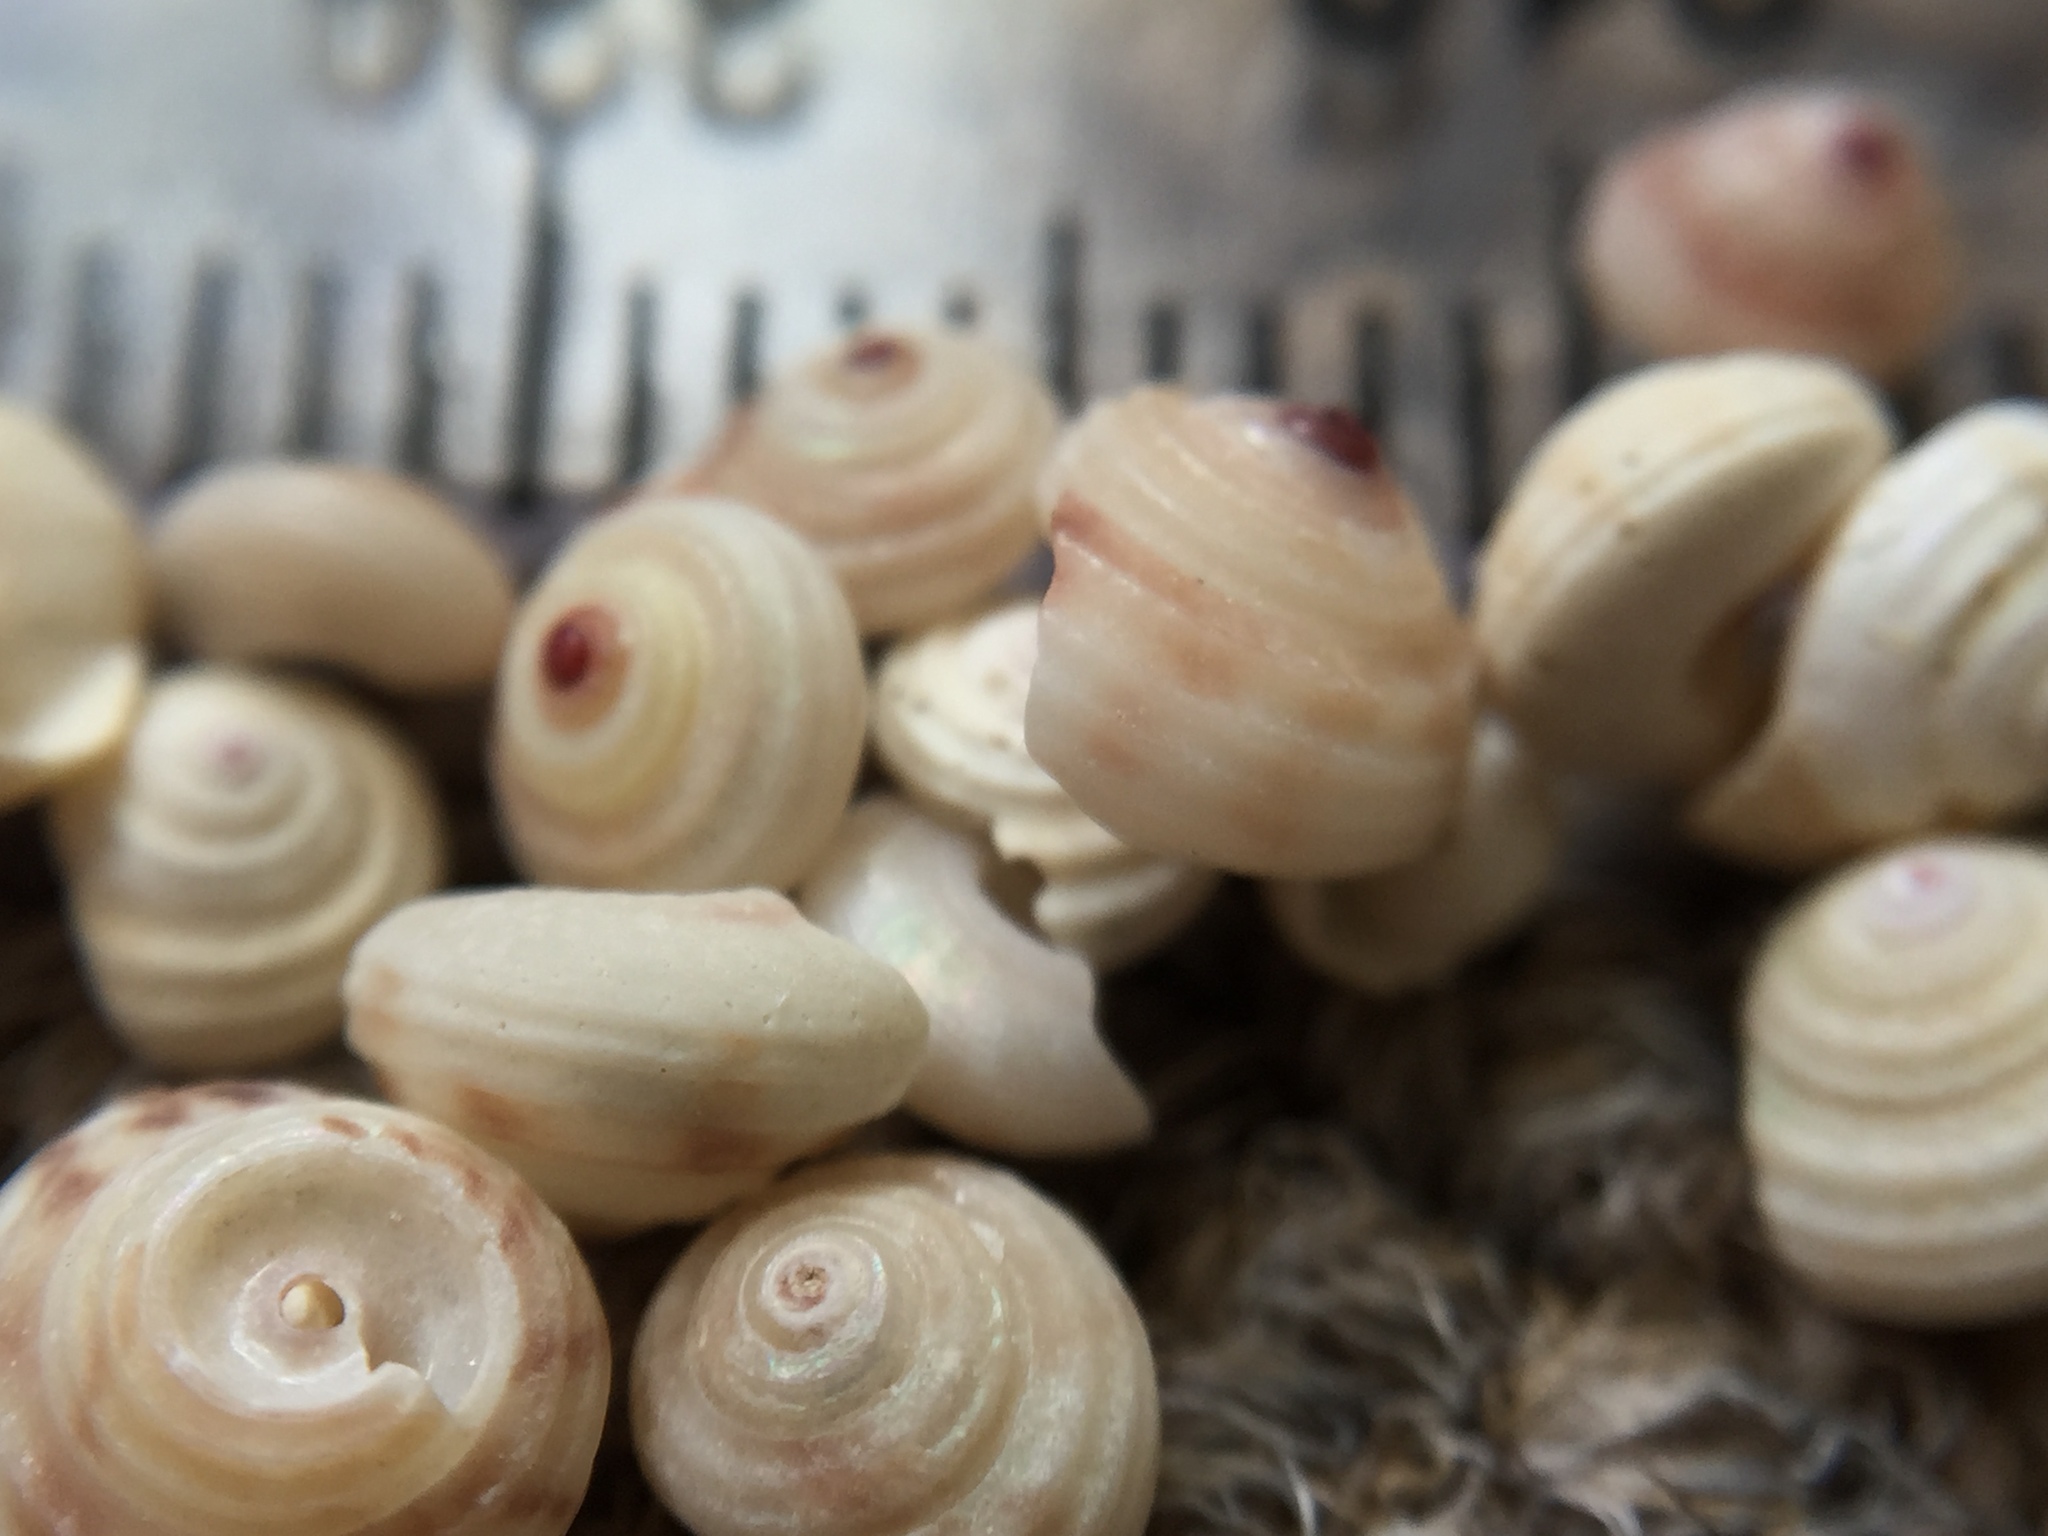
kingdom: Animalia
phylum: Mollusca
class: Gastropoda
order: Trochida
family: Trochidae
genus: Antisolarium
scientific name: Antisolarium egenum
